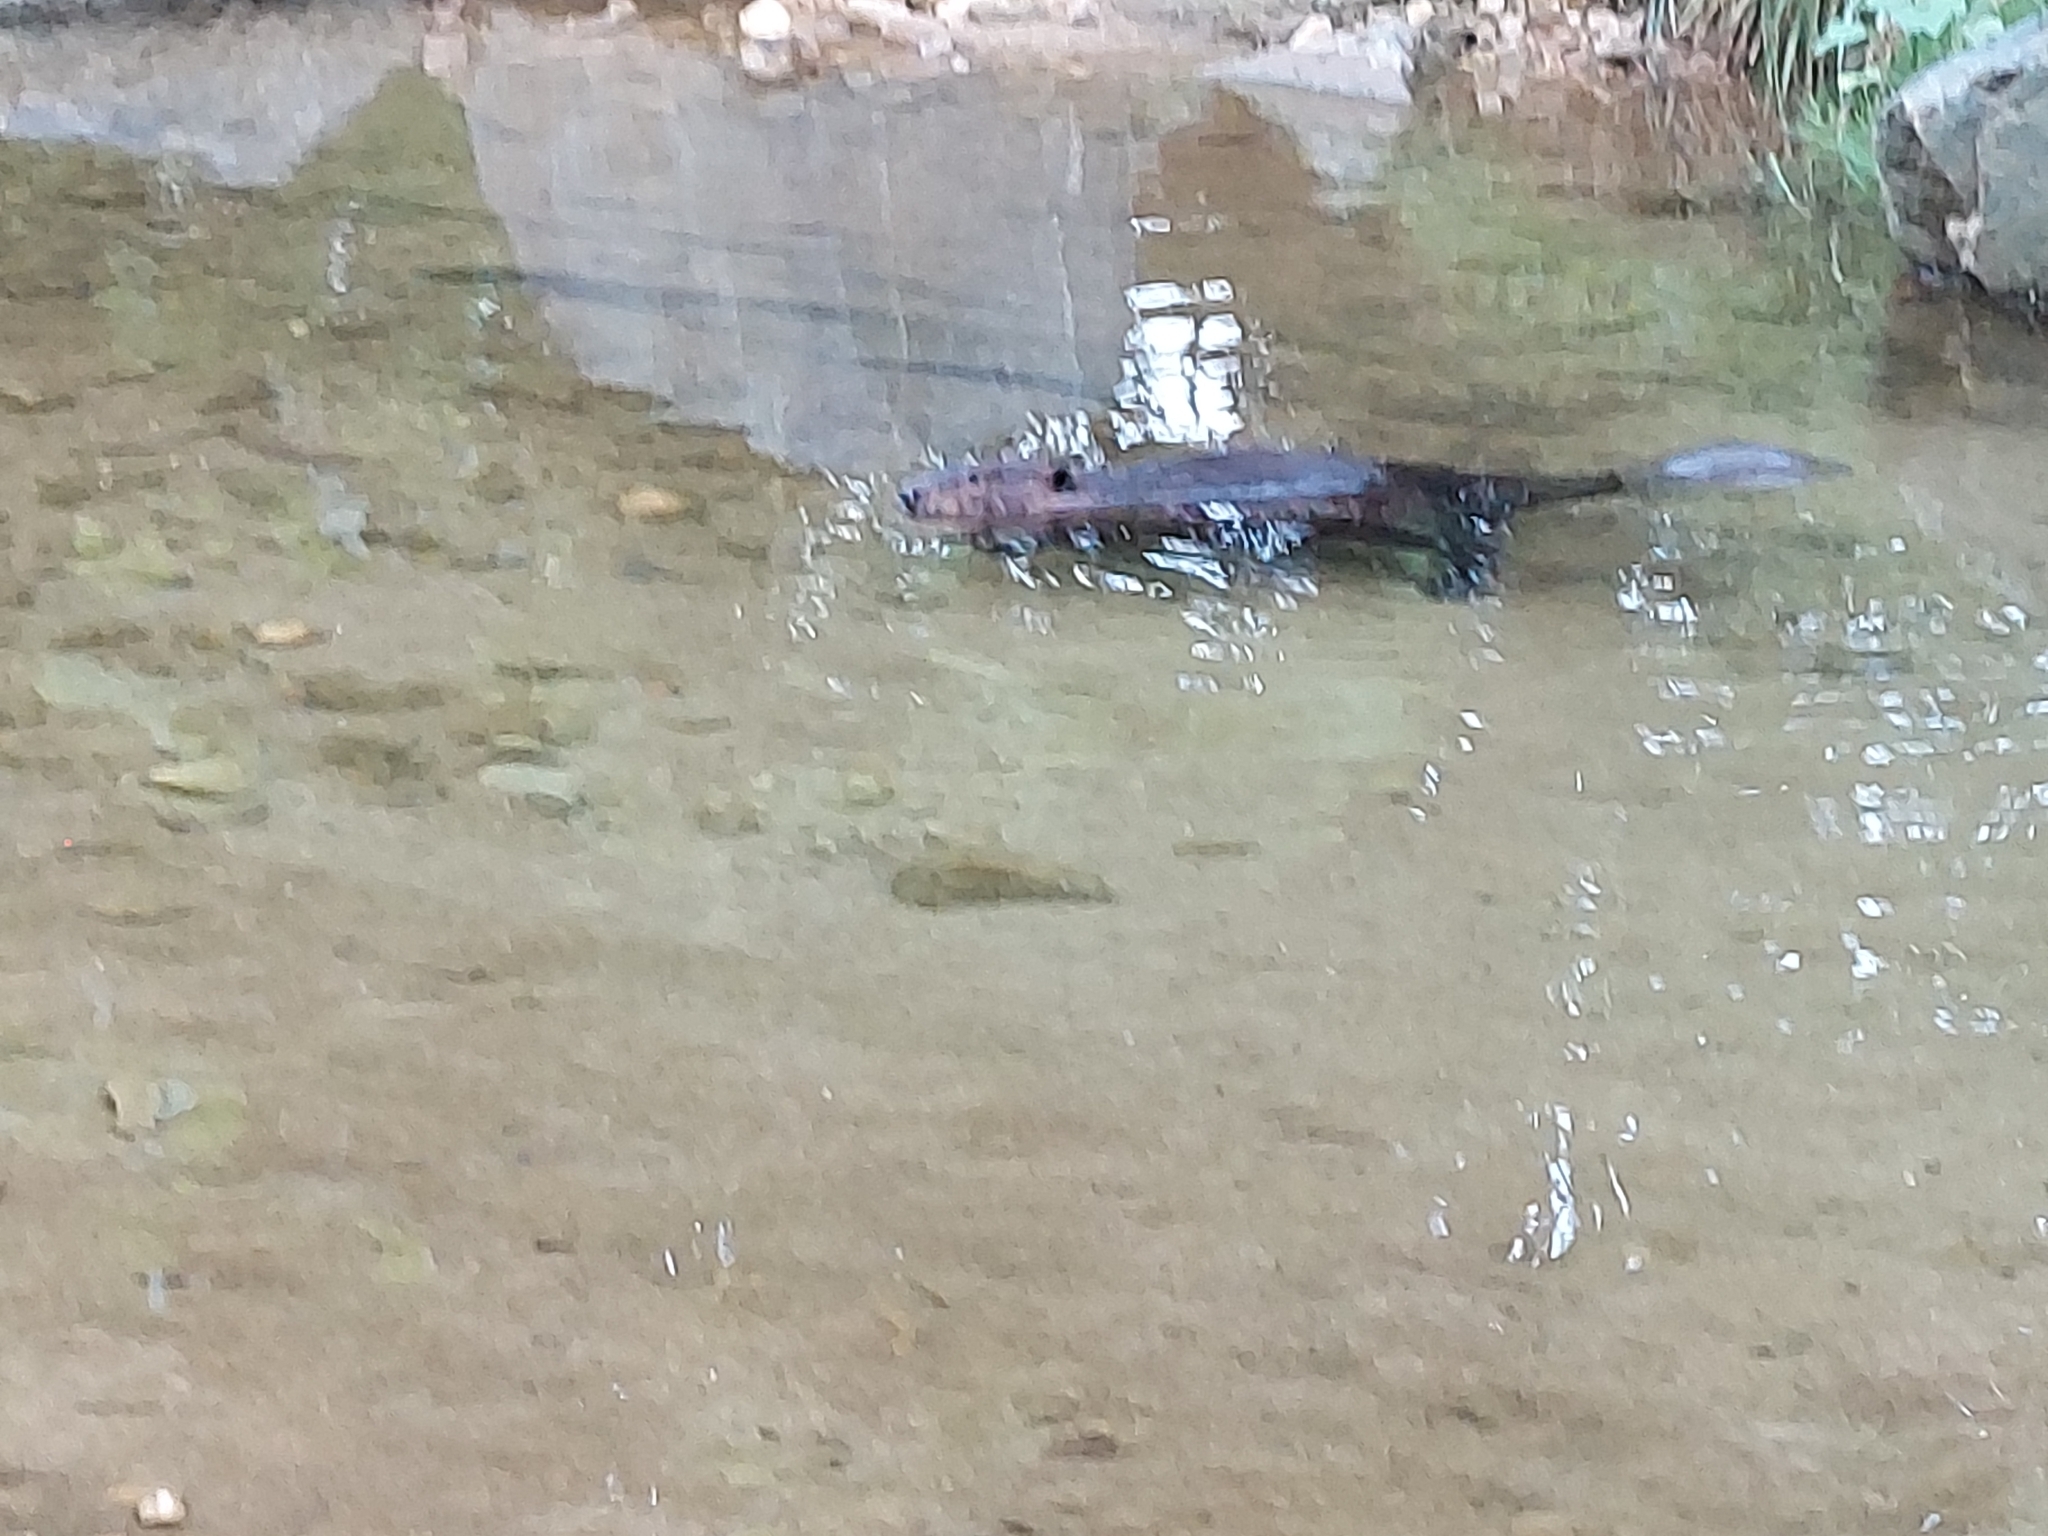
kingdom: Animalia
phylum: Chordata
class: Mammalia
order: Rodentia
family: Castoridae
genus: Castor
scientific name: Castor canadensis
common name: American beaver
